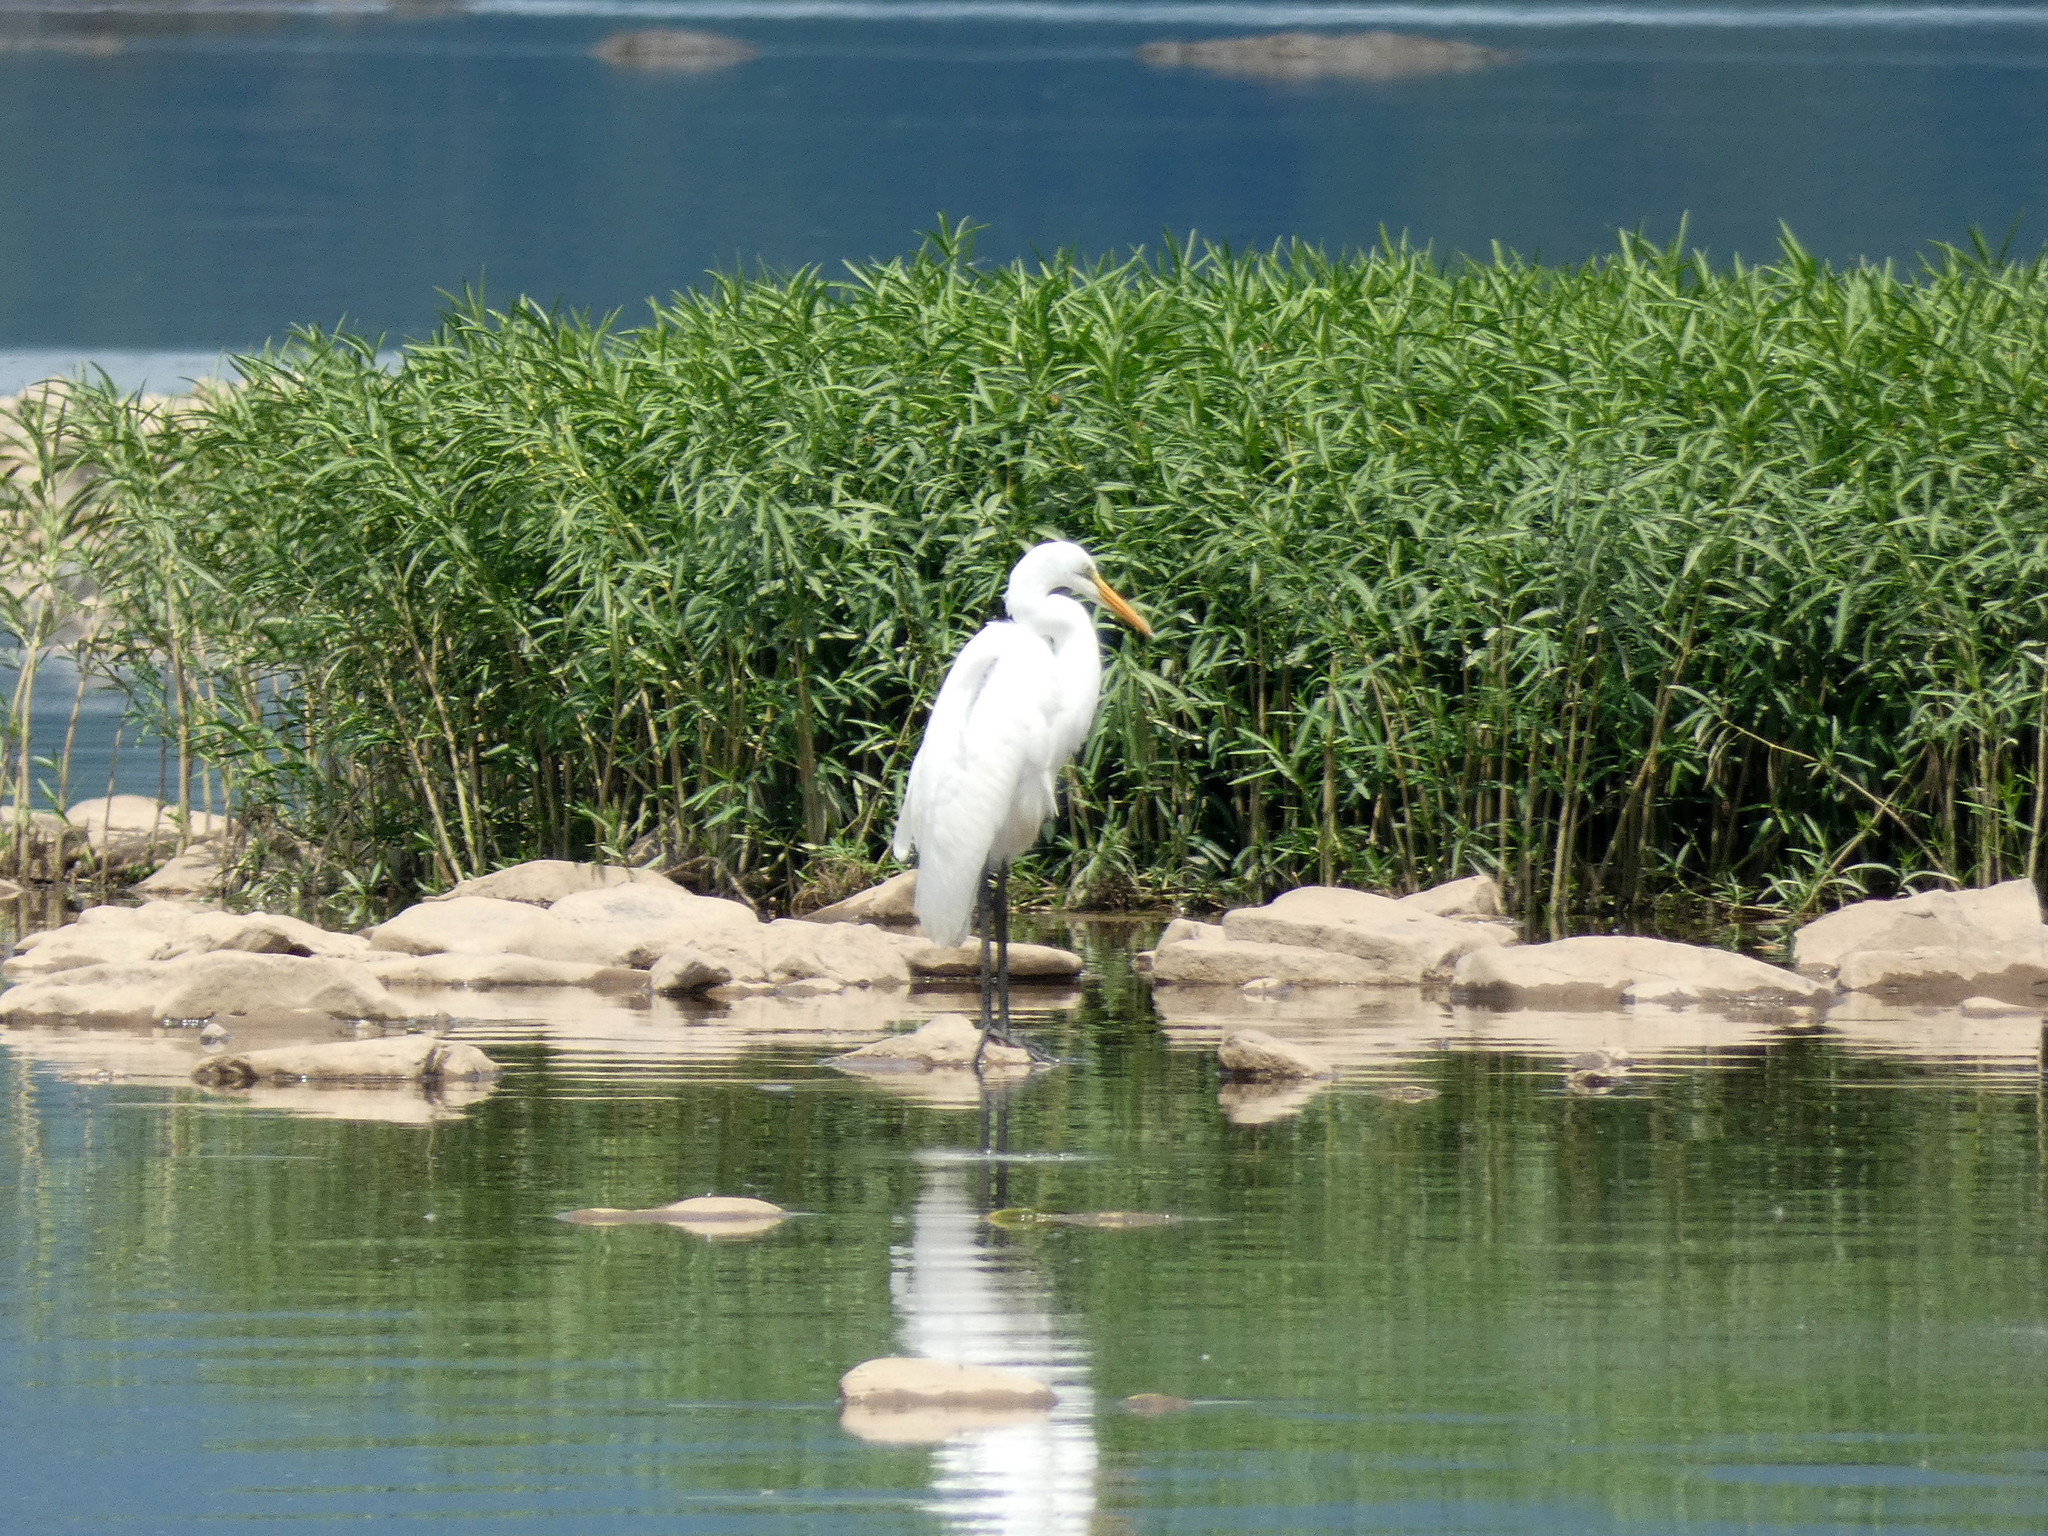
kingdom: Animalia
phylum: Chordata
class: Aves
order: Pelecaniformes
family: Ardeidae
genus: Ardea
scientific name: Ardea alba
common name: Great egret
